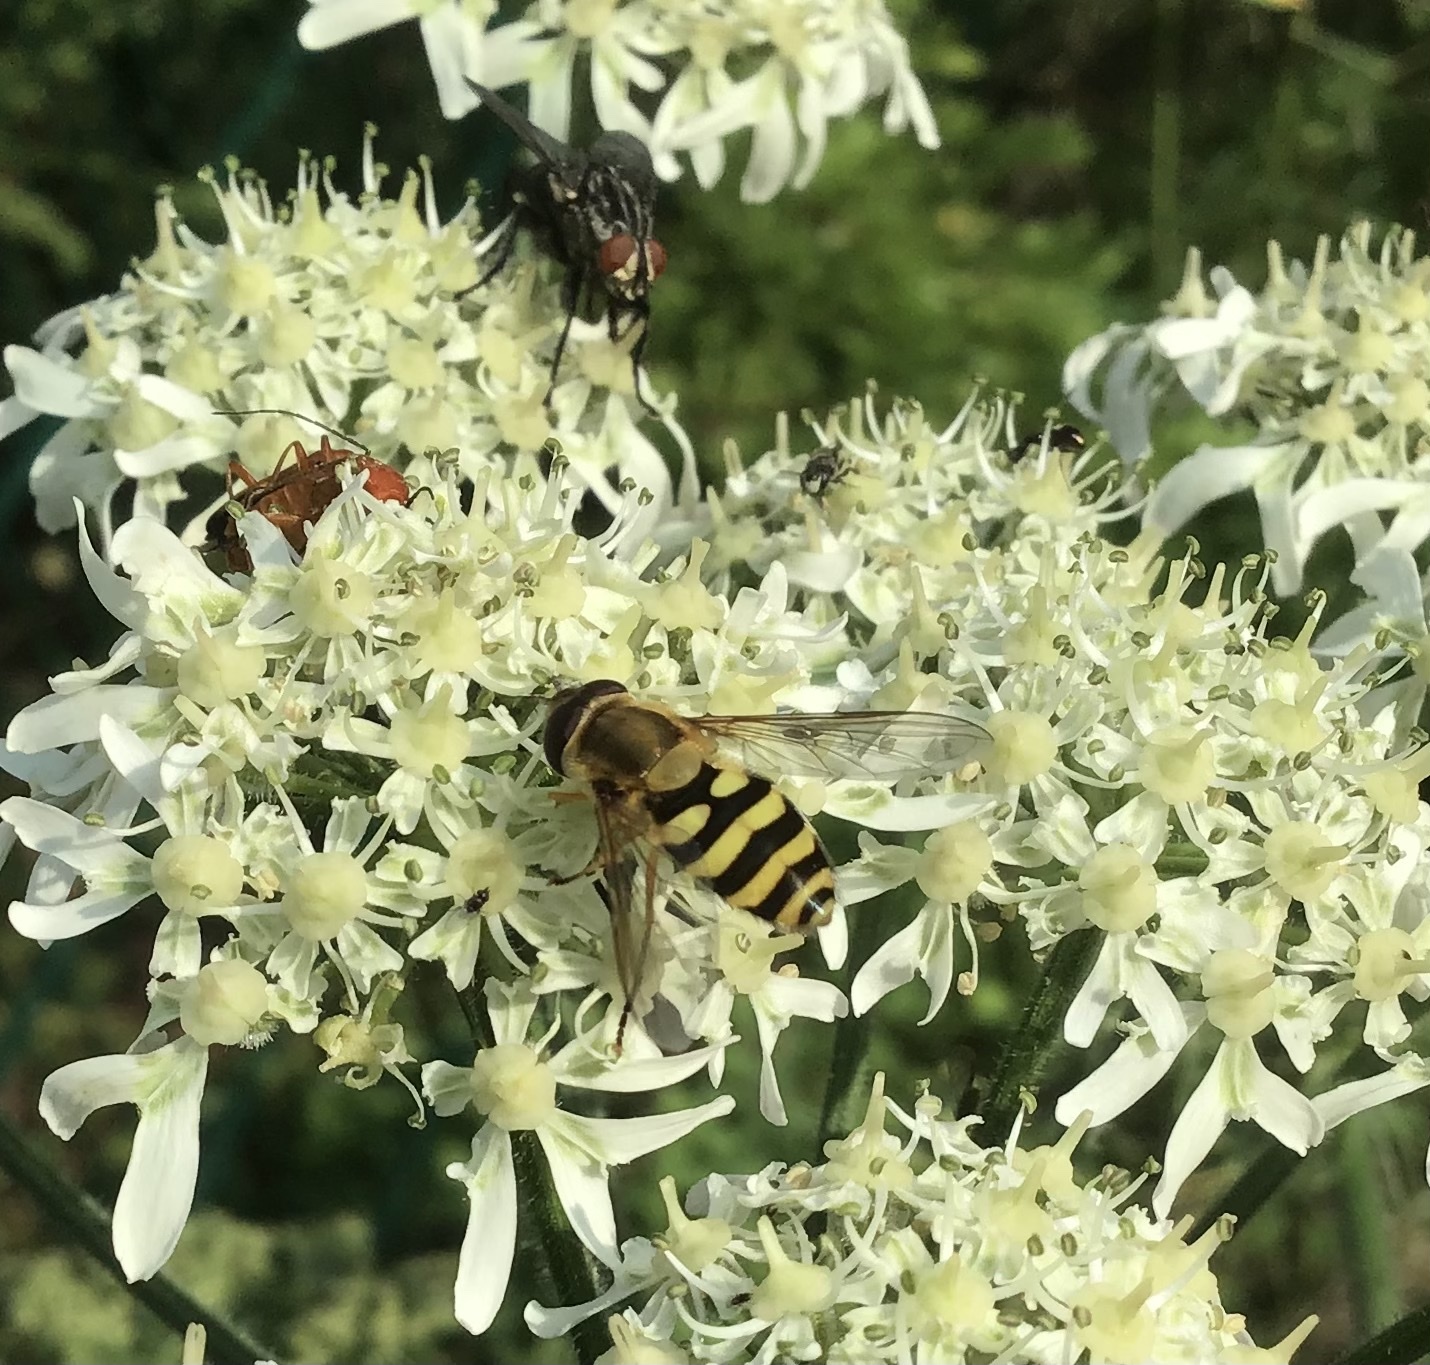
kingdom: Animalia
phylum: Arthropoda
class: Insecta
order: Diptera
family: Syrphidae
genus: Syrphus
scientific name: Syrphus
